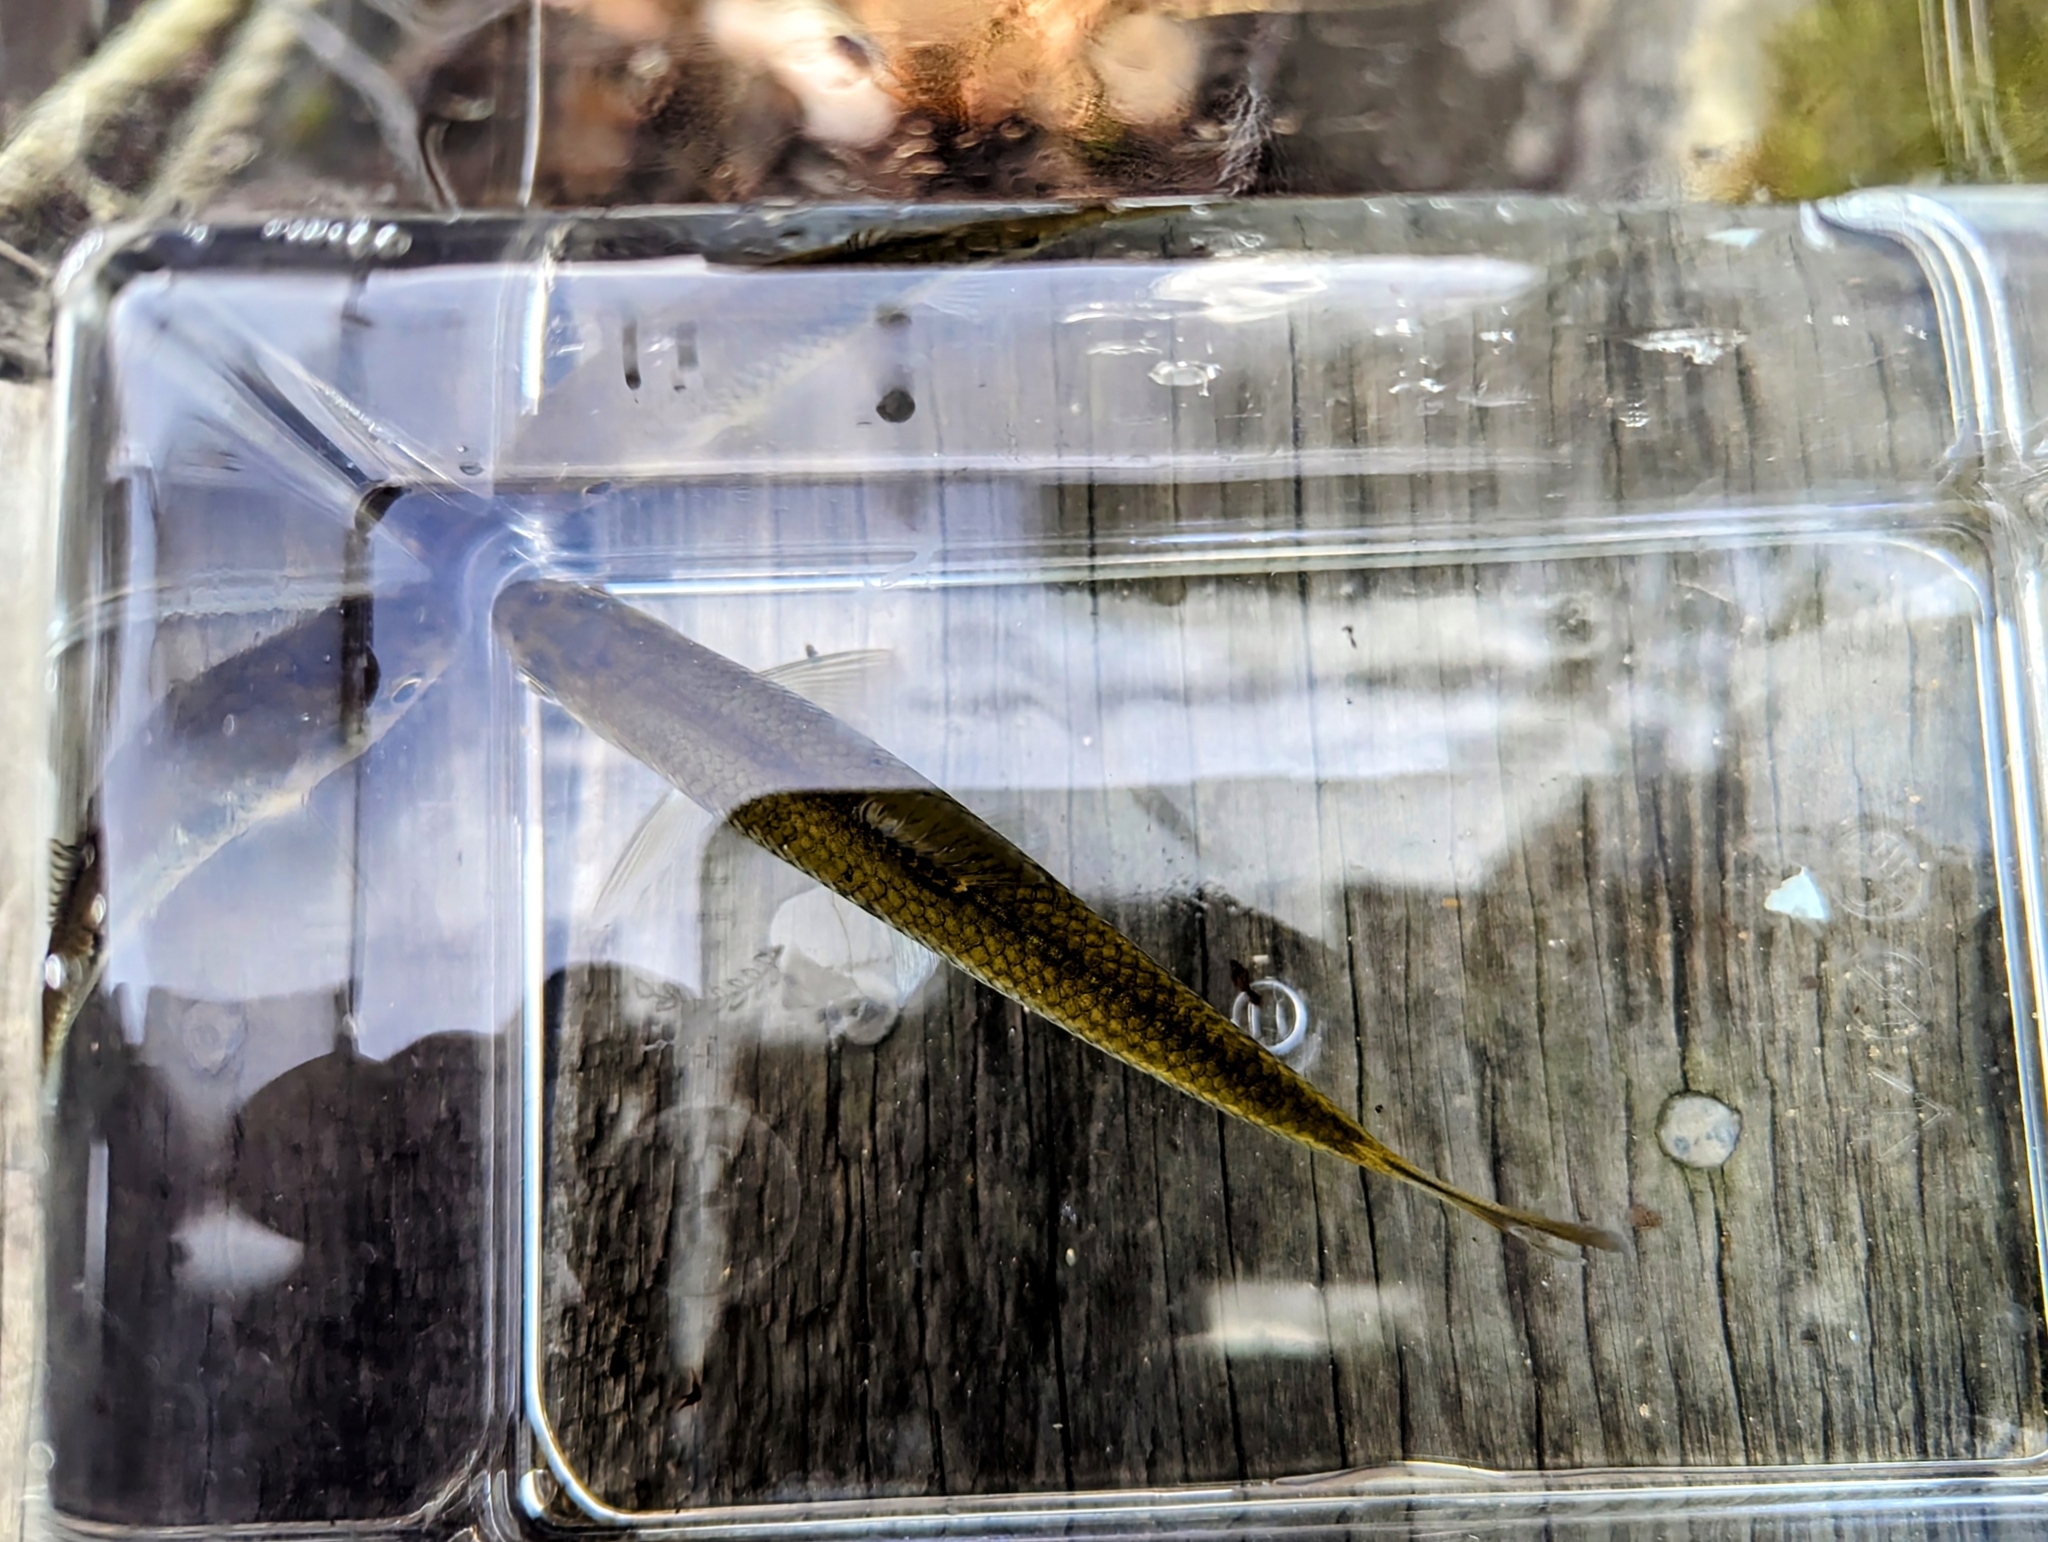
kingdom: Animalia
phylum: Chordata
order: Cypriniformes
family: Cyprinidae
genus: Luxilus
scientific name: Luxilus cornutus
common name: Common shiner
